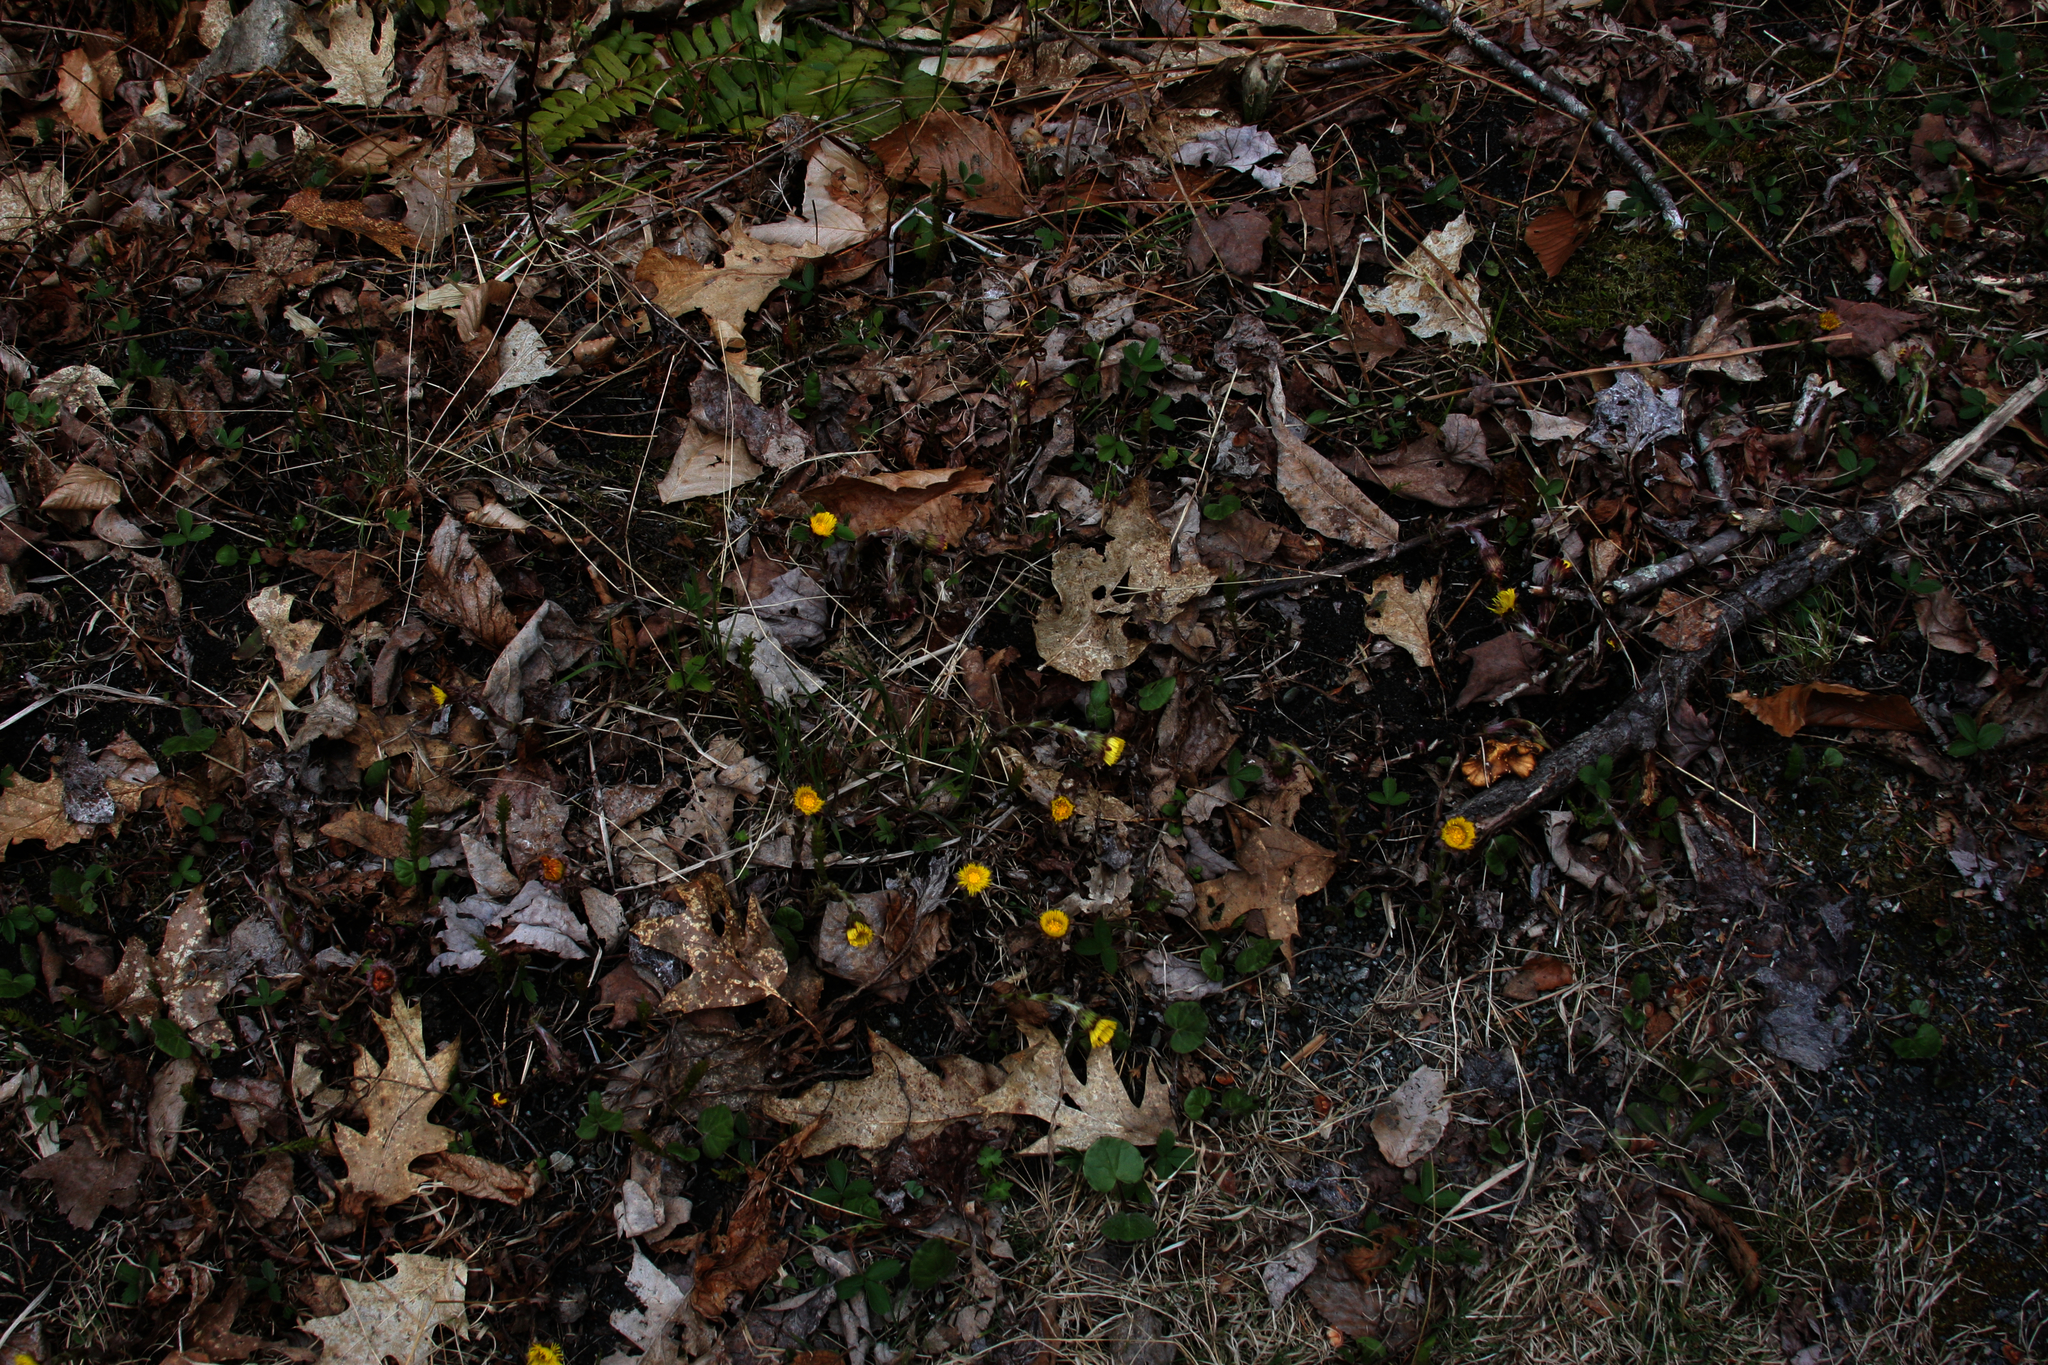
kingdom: Plantae
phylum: Tracheophyta
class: Magnoliopsida
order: Asterales
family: Asteraceae
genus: Tussilago
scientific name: Tussilago farfara
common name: Coltsfoot
